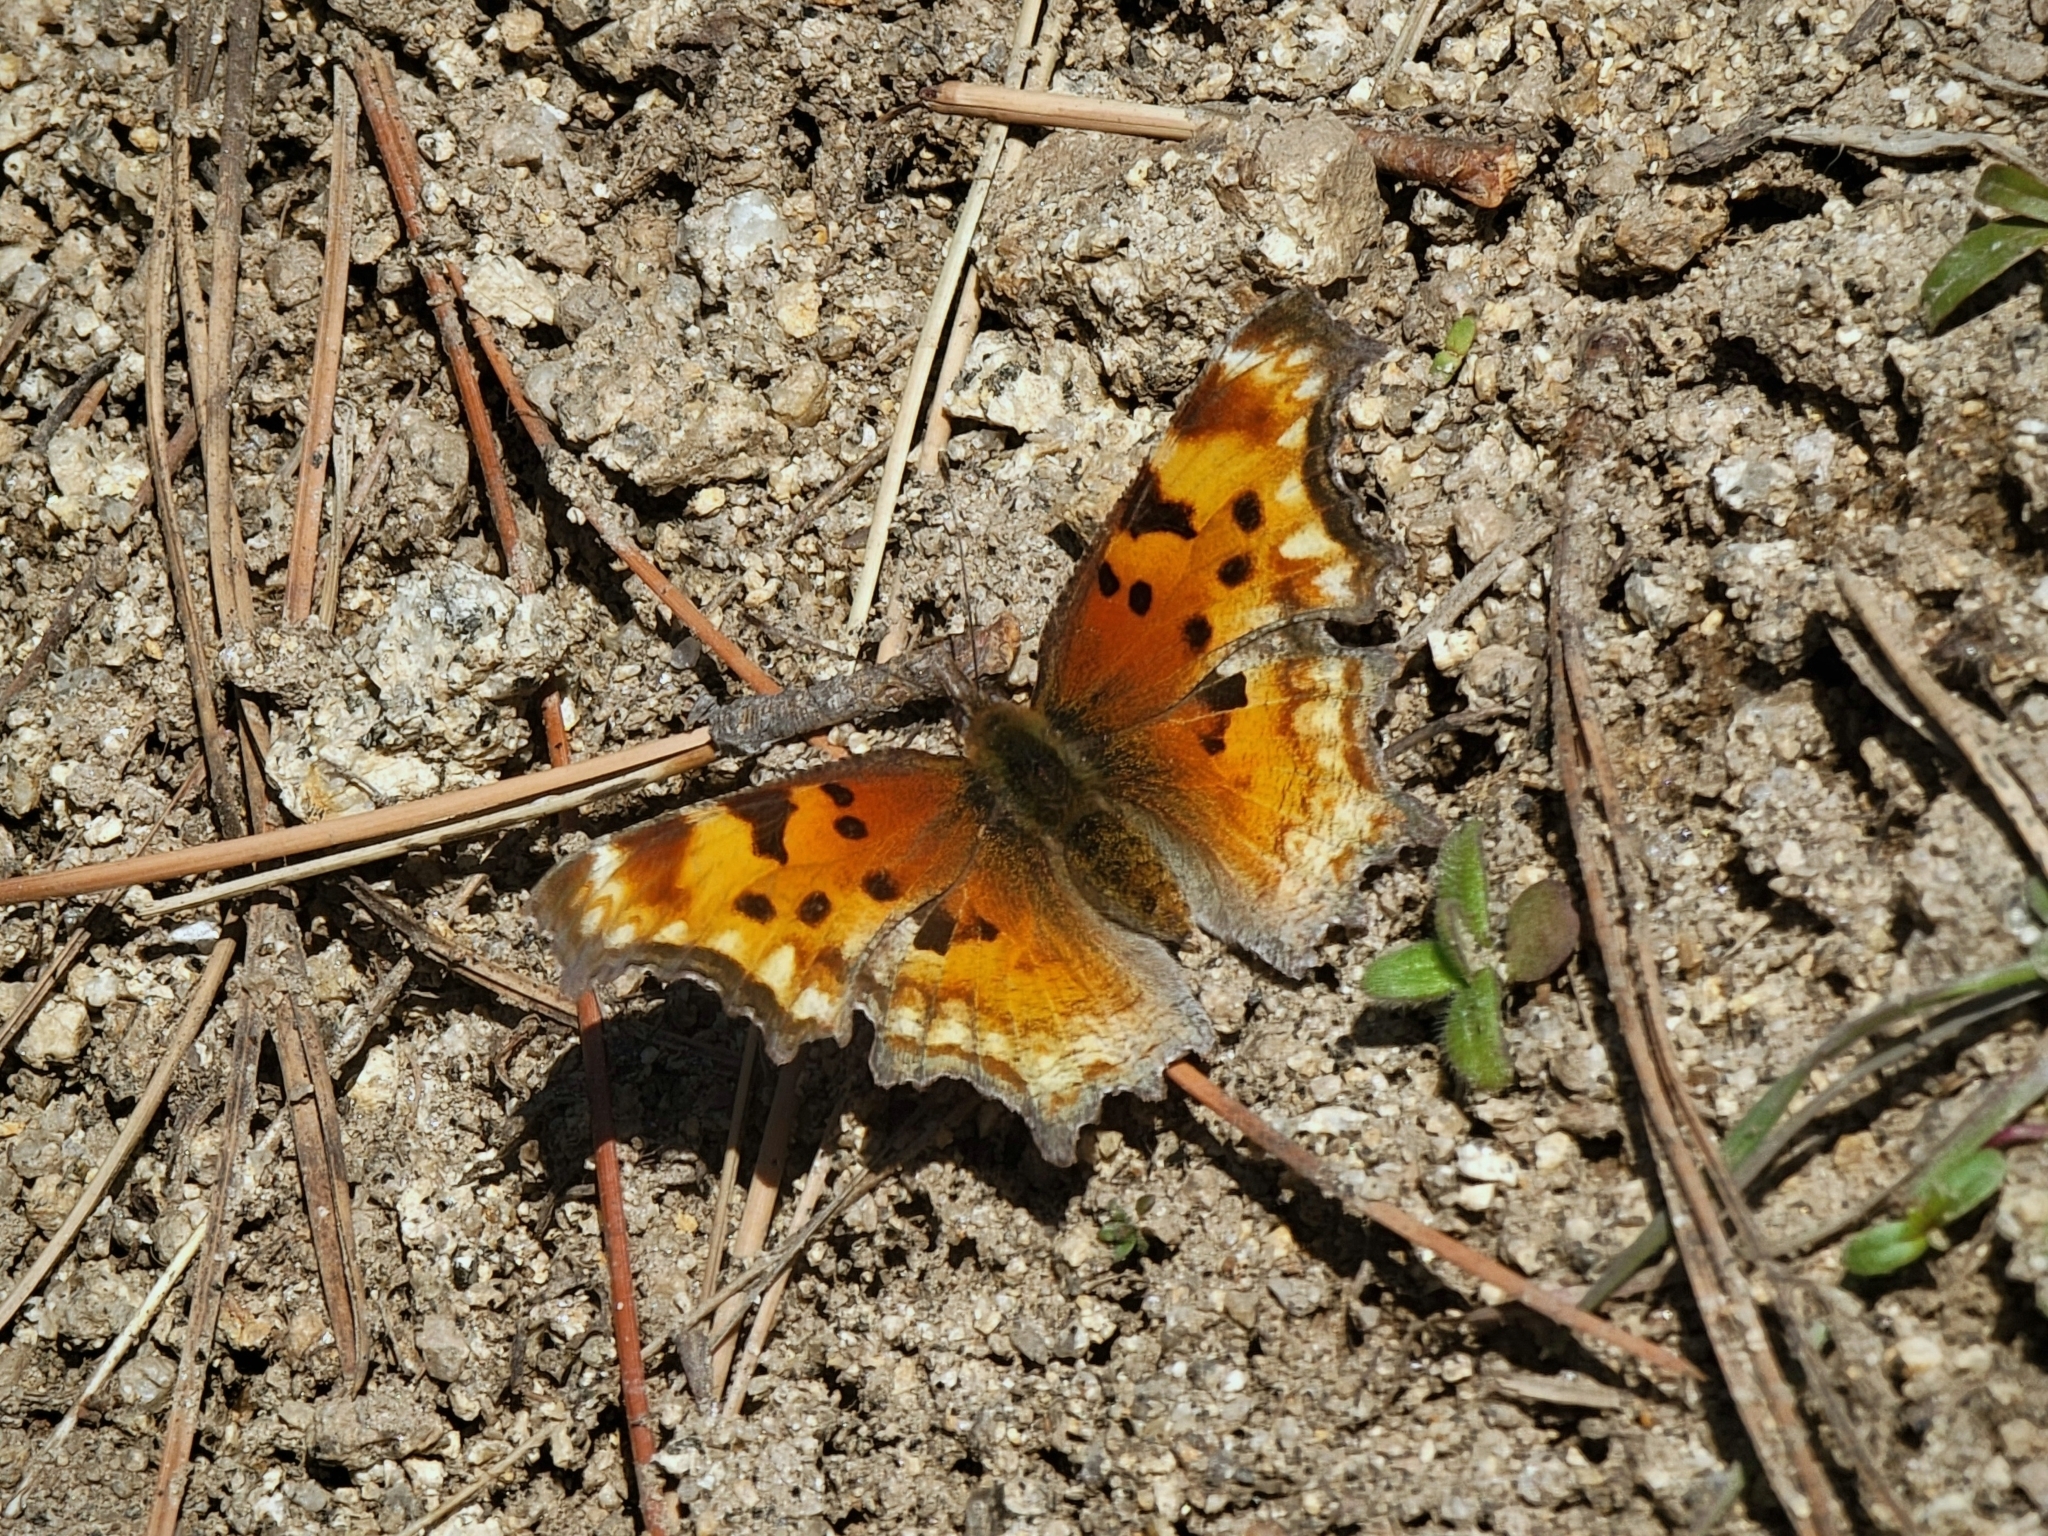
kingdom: Animalia
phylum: Arthropoda
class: Insecta
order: Lepidoptera
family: Nymphalidae
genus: Polygonia
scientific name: Polygonia gracilis
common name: Hoary comma
